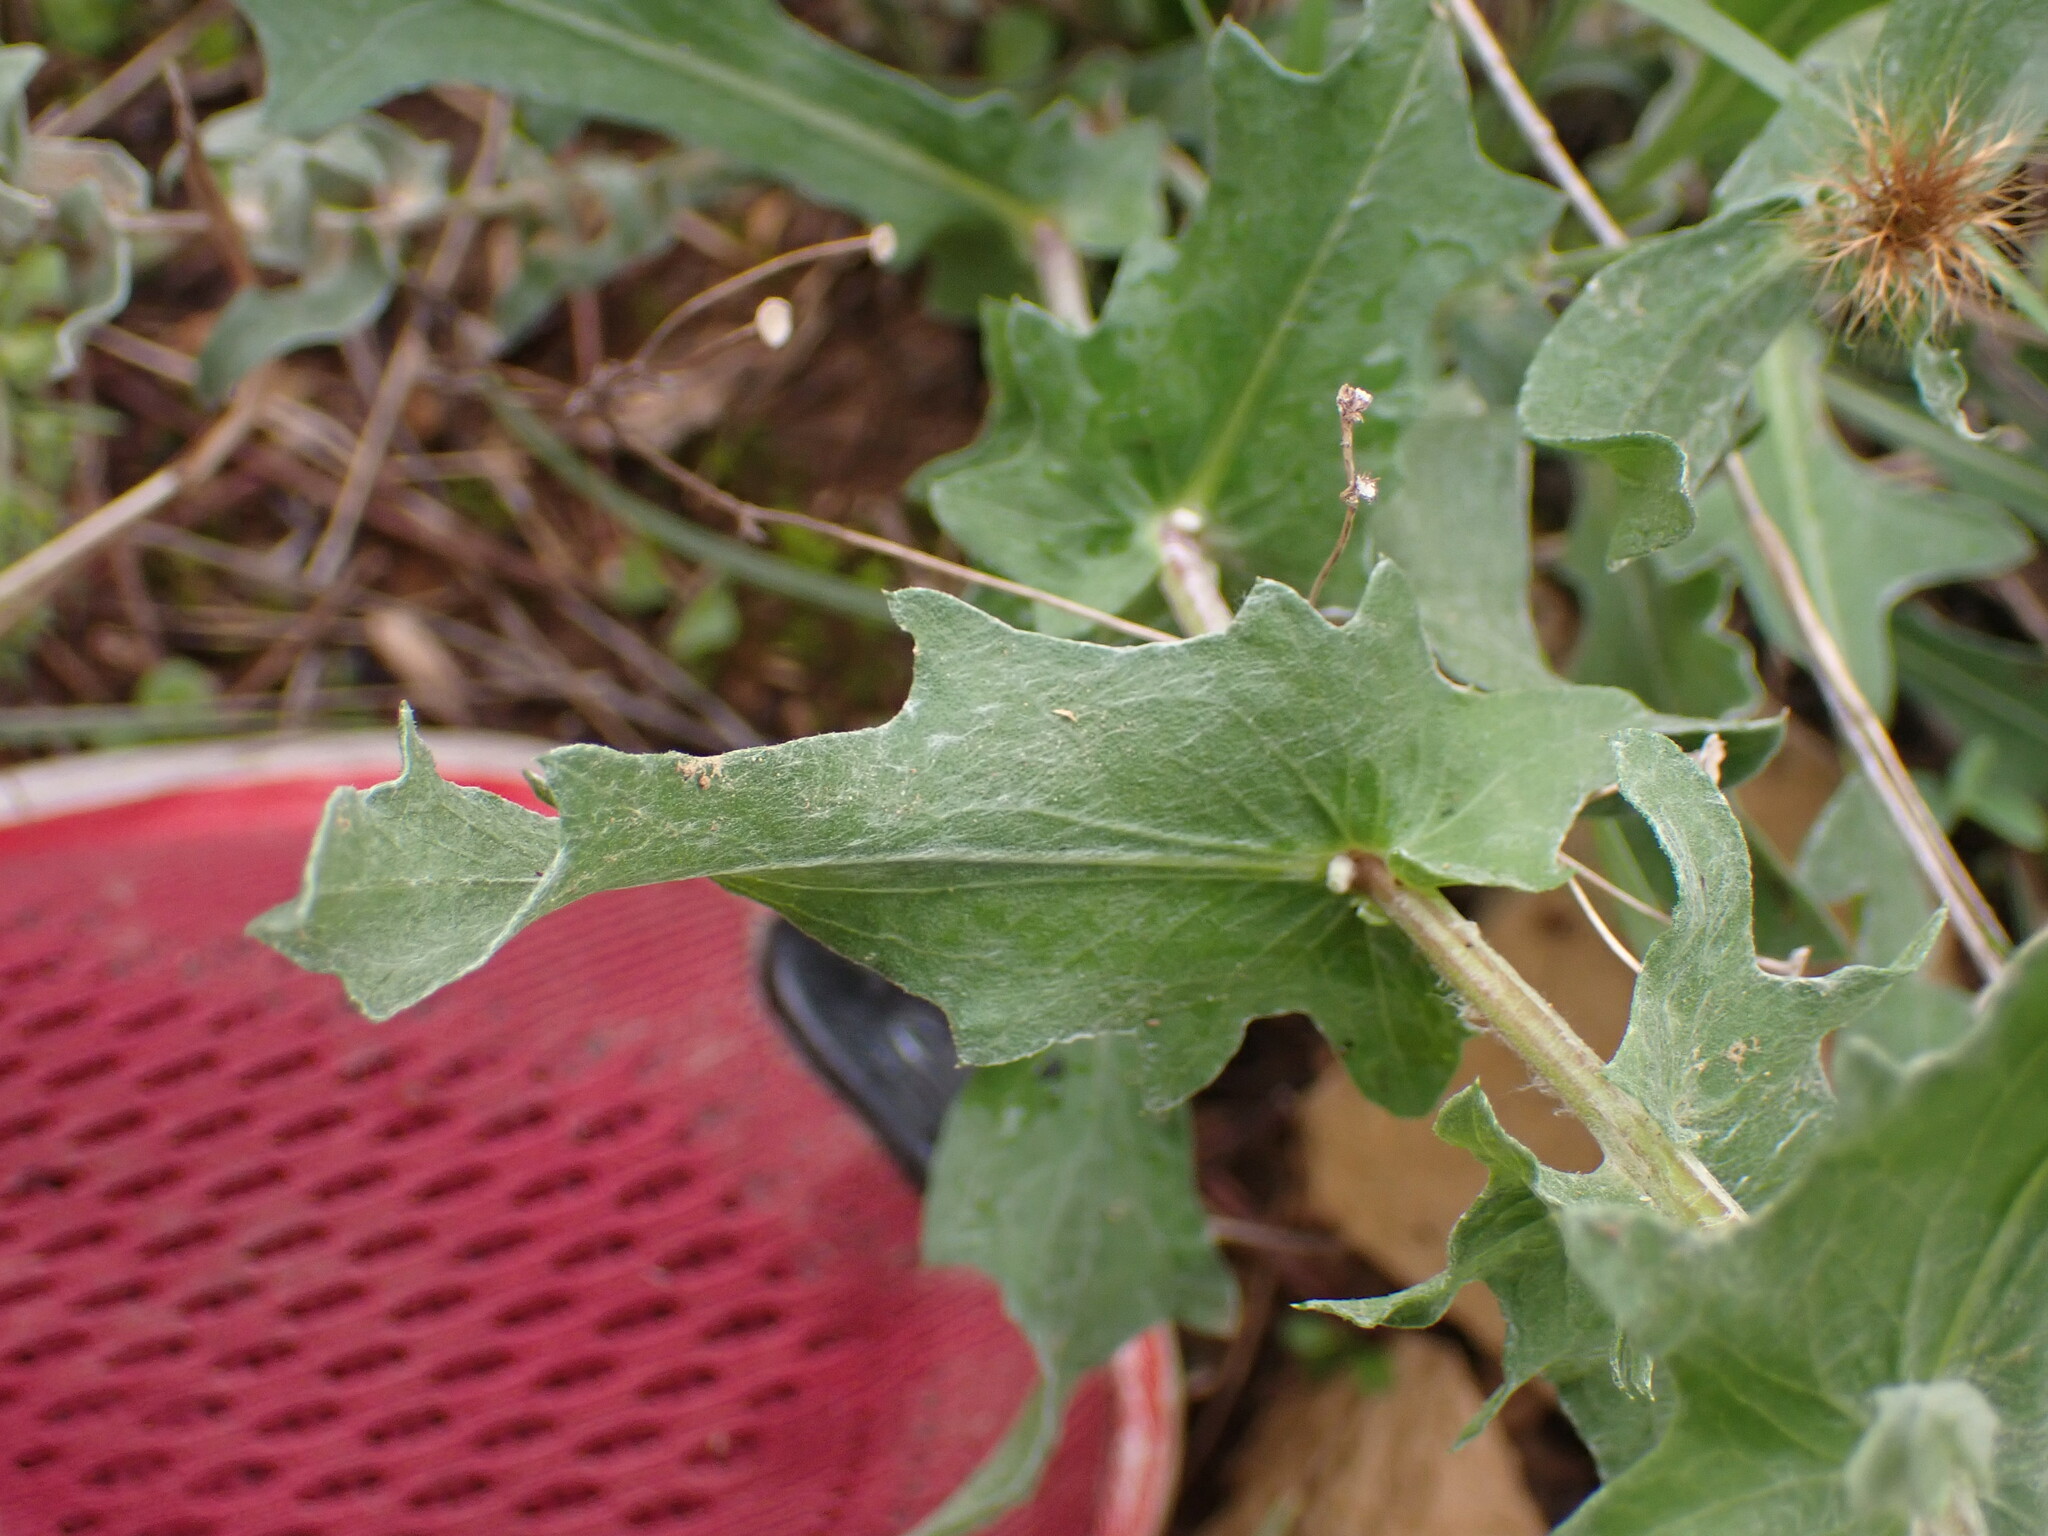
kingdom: Plantae
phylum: Tracheophyta
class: Magnoliopsida
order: Asterales
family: Asteraceae
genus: Centaurea
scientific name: Centaurea pectinata
